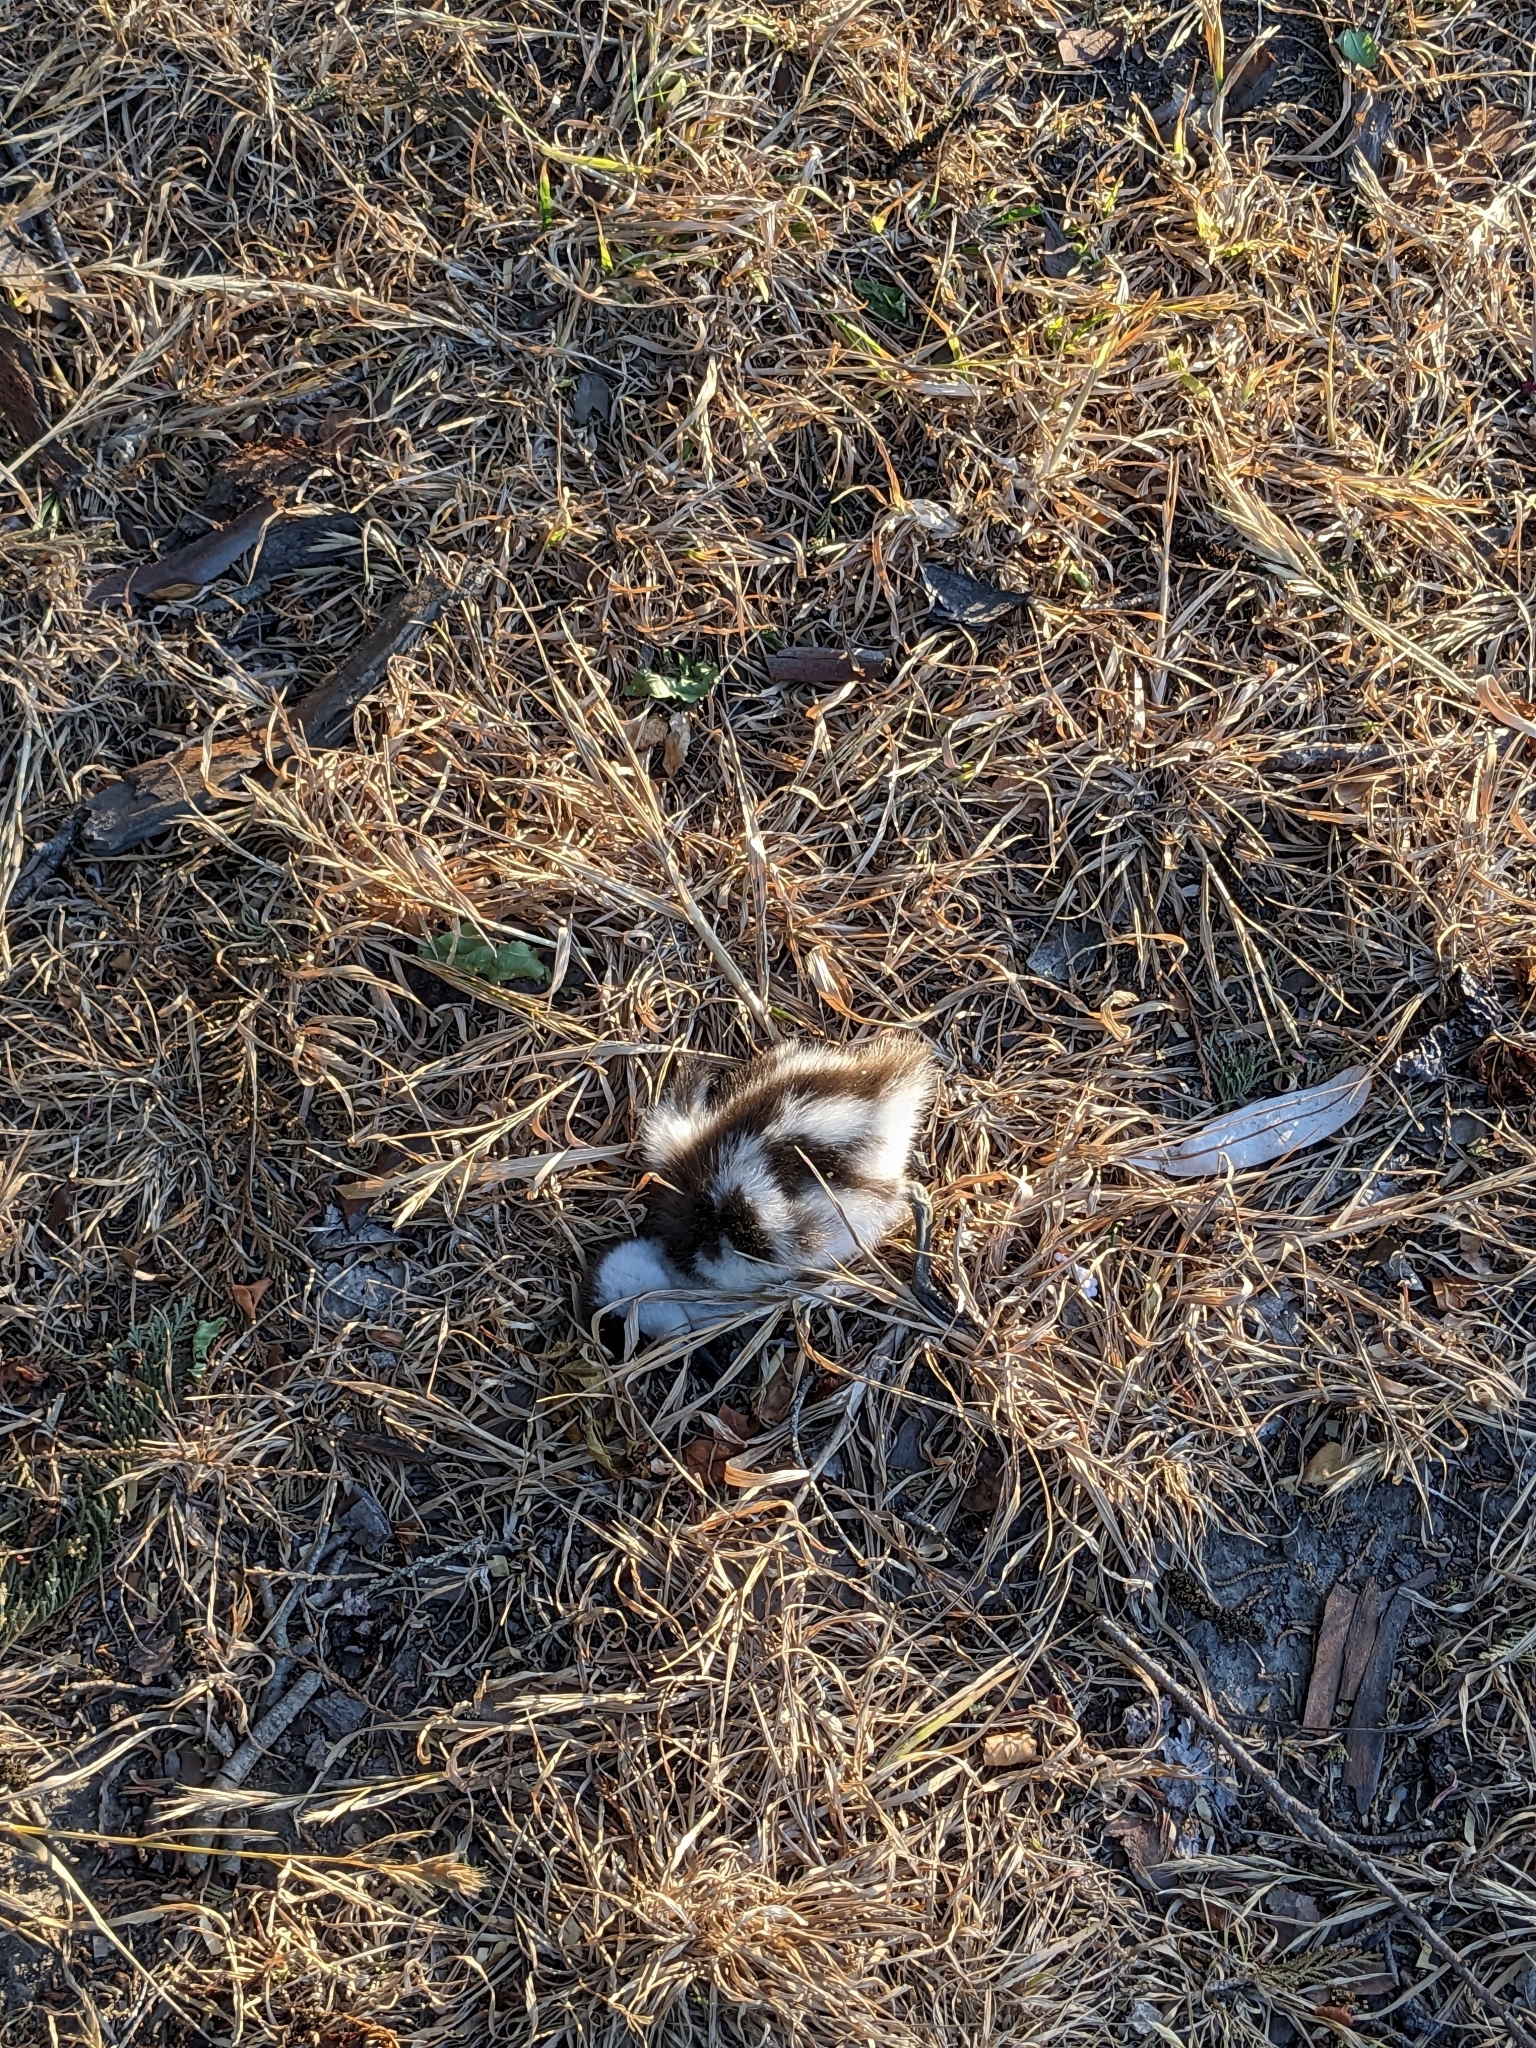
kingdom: Animalia
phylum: Chordata
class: Aves
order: Anseriformes
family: Anatidae
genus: Tadorna
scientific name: Tadorna variegata
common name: Paradise shelduck
